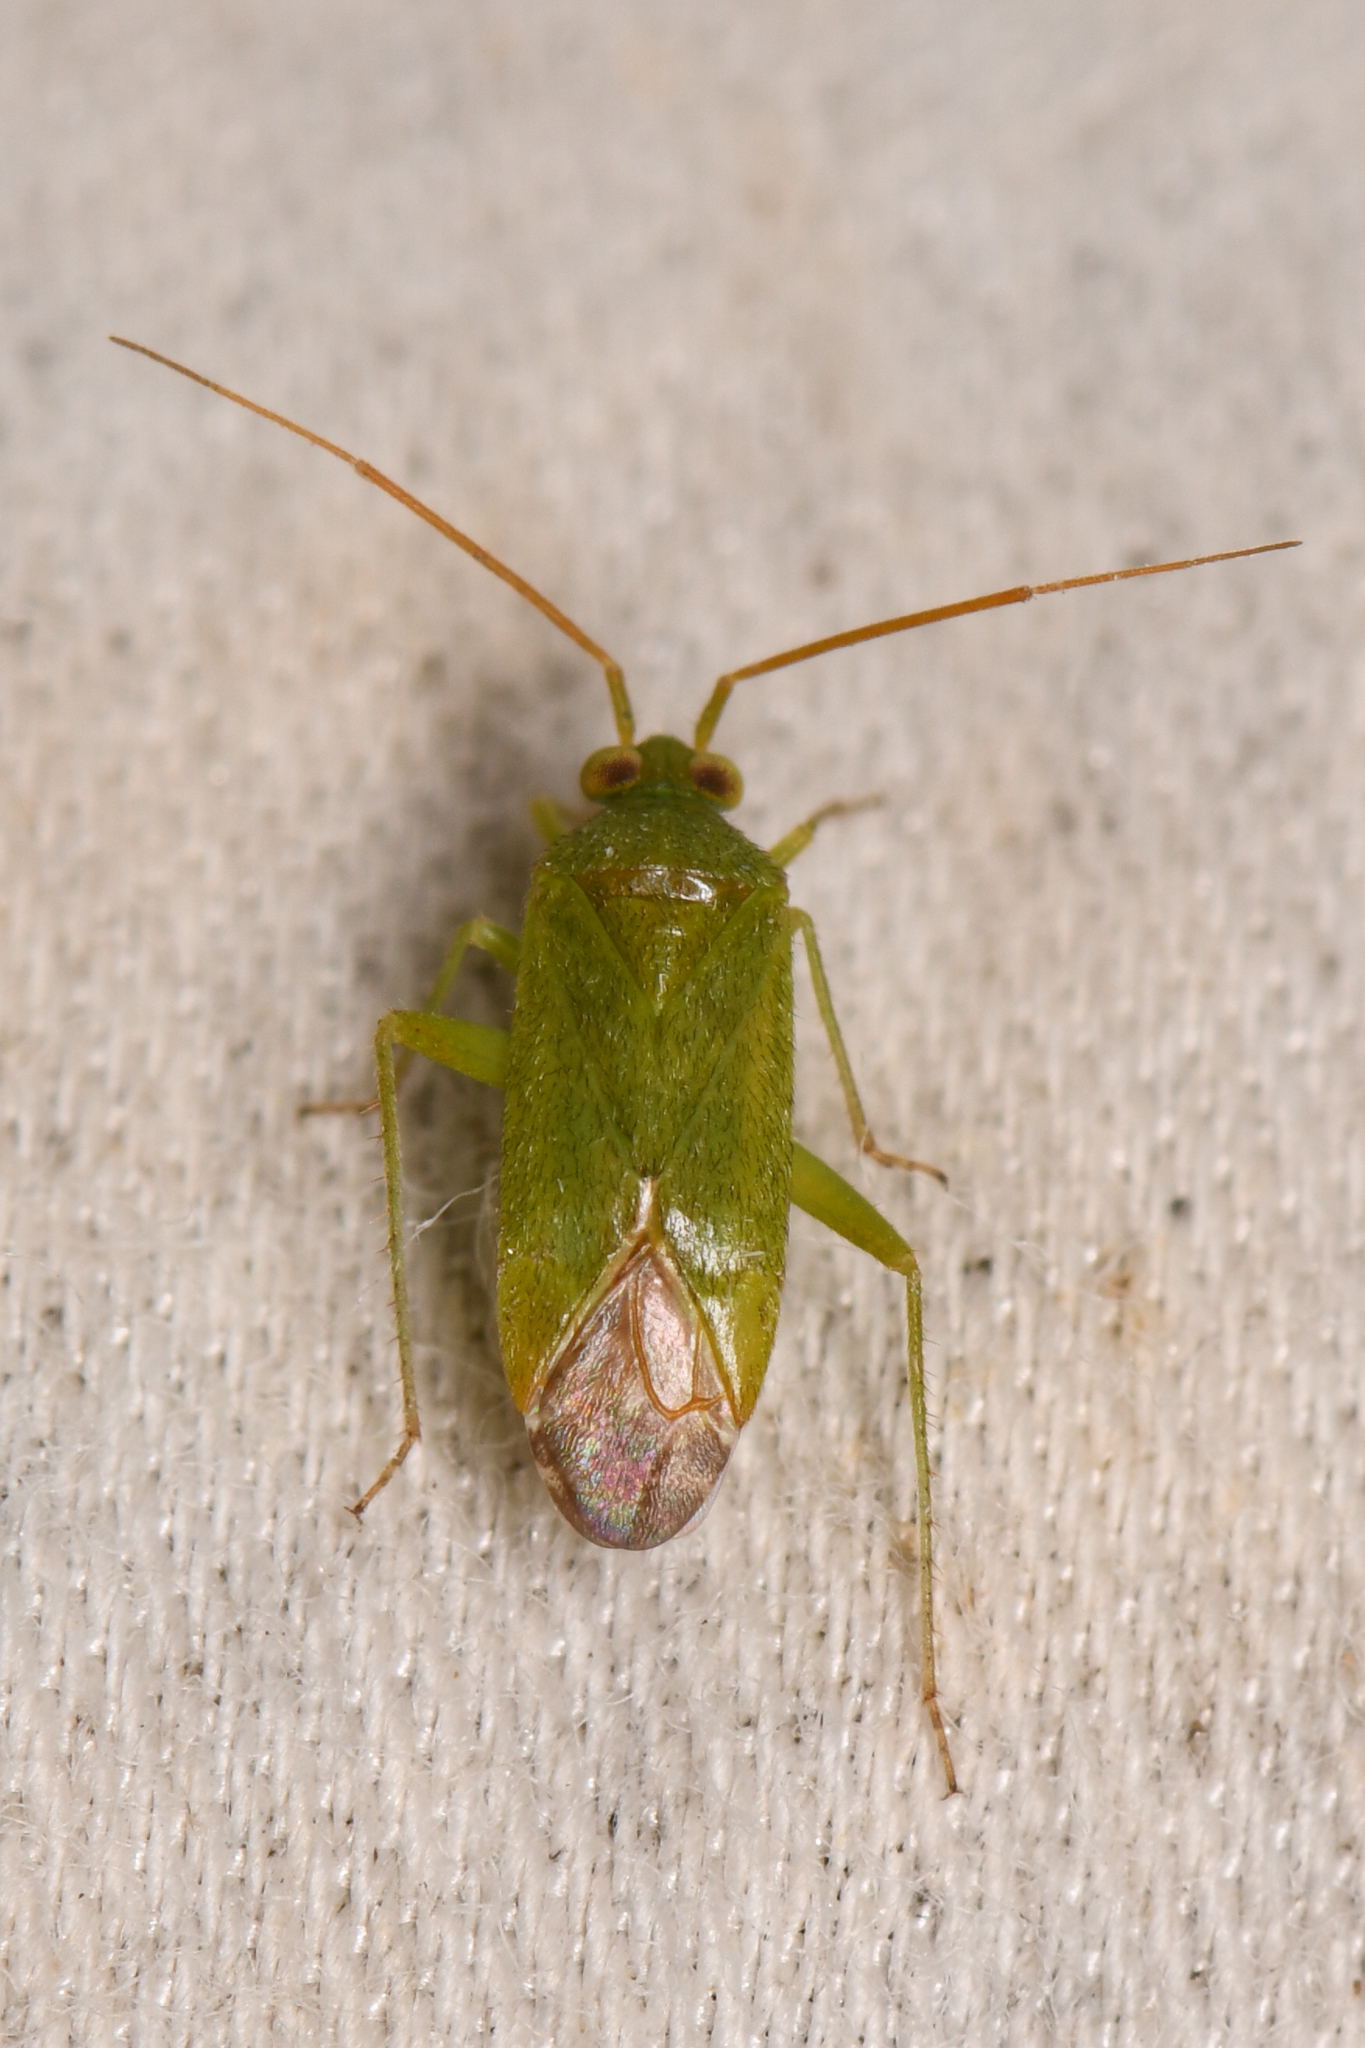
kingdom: Animalia
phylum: Arthropoda
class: Insecta
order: Hemiptera
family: Miridae
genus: Phytocoris
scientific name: Phytocoris vanduzeei
